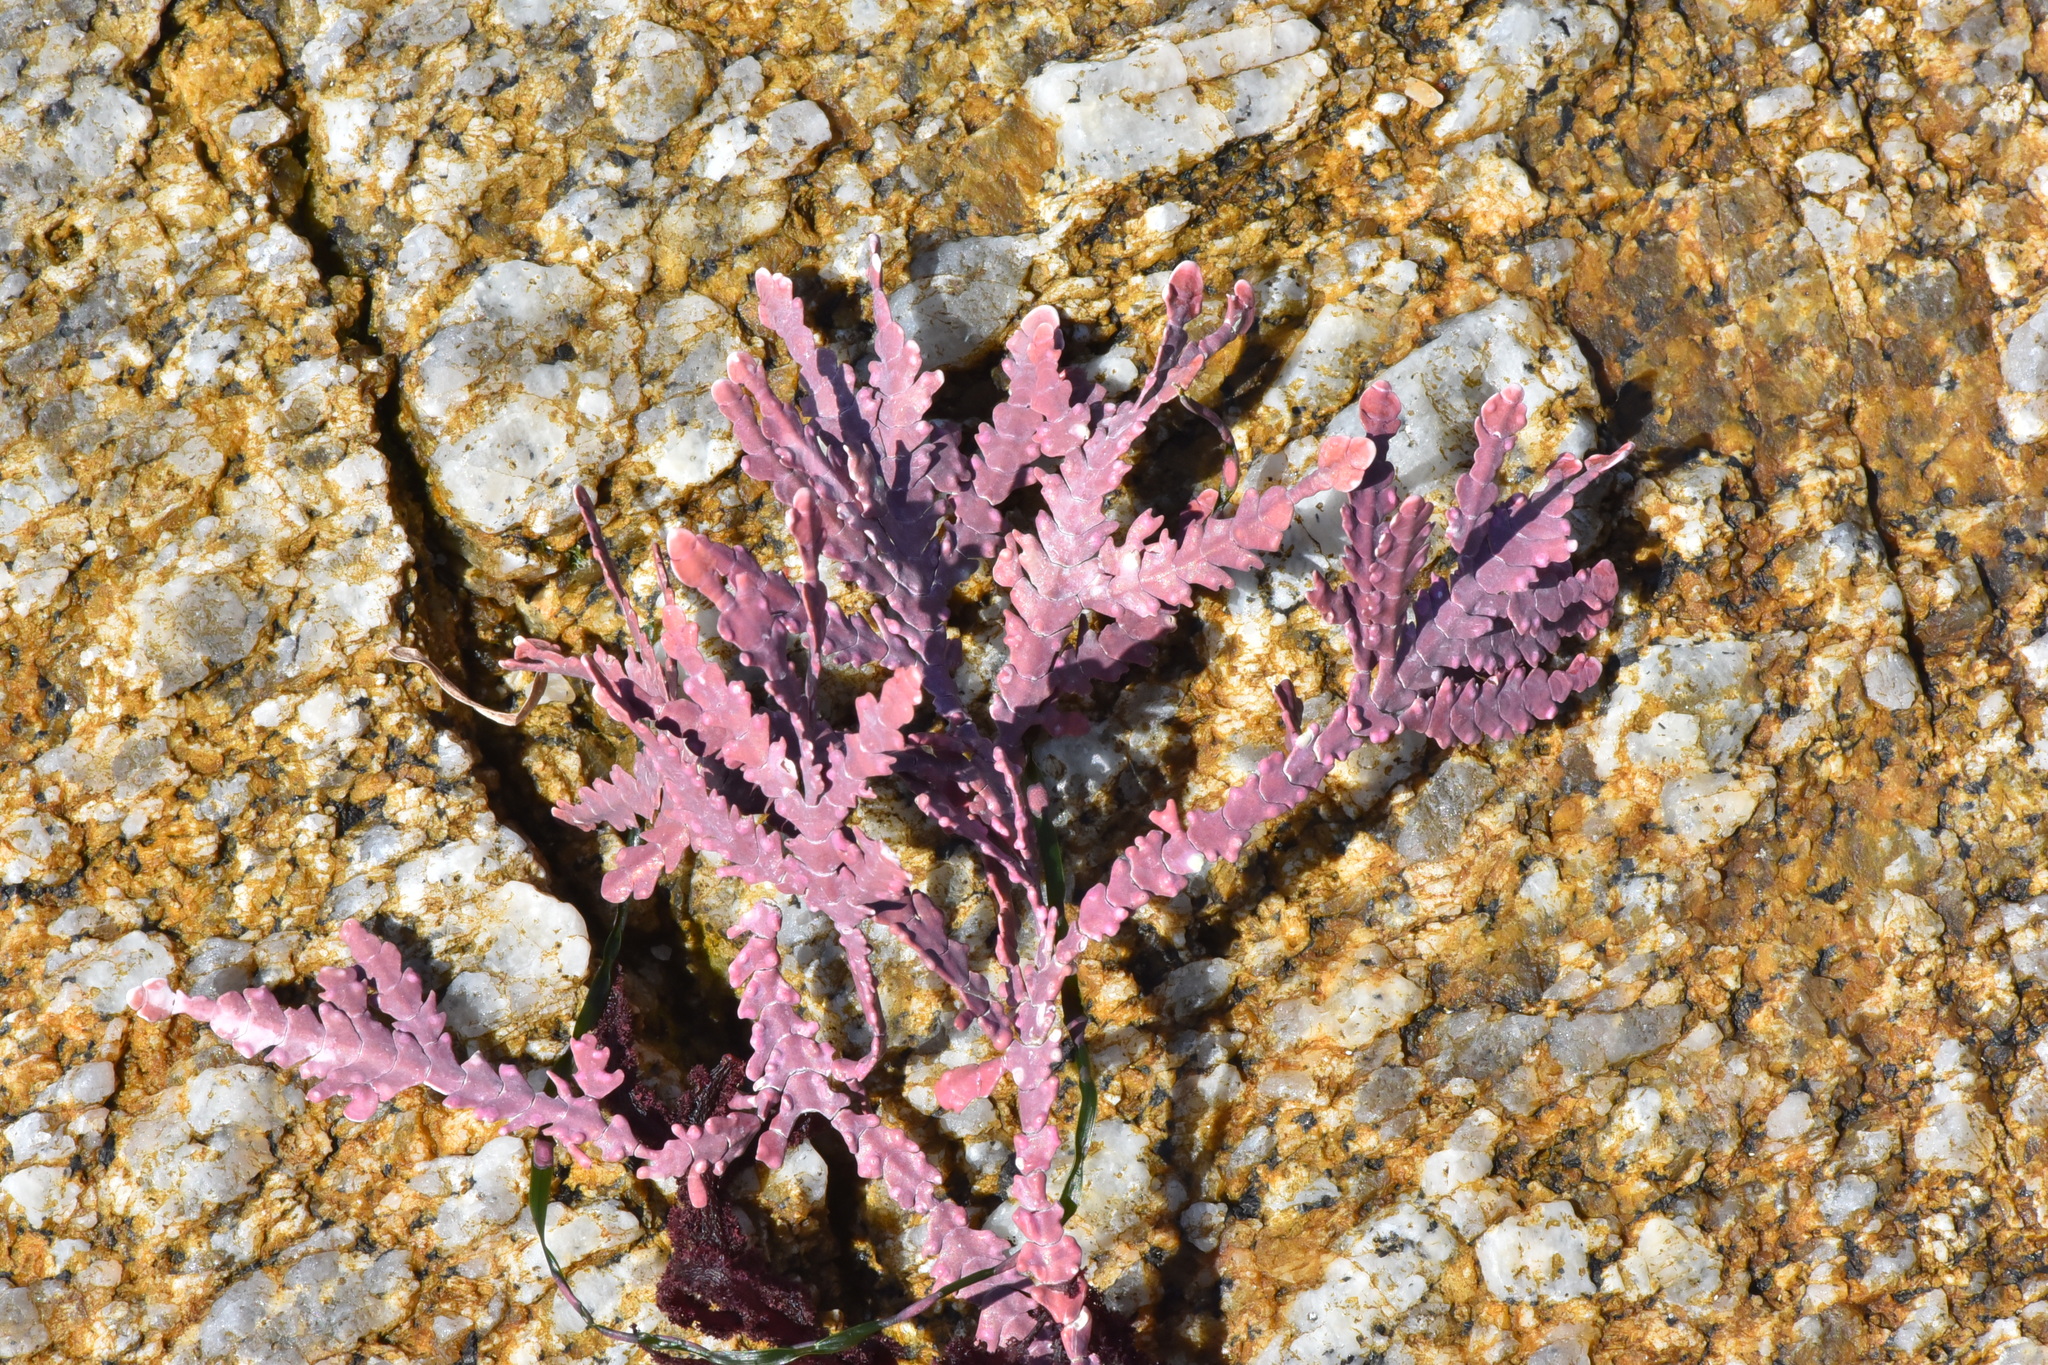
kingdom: Plantae
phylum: Rhodophyta
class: Florideophyceae
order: Corallinales
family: Corallinaceae
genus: Calliarthron
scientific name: Calliarthron cheilosporioides
